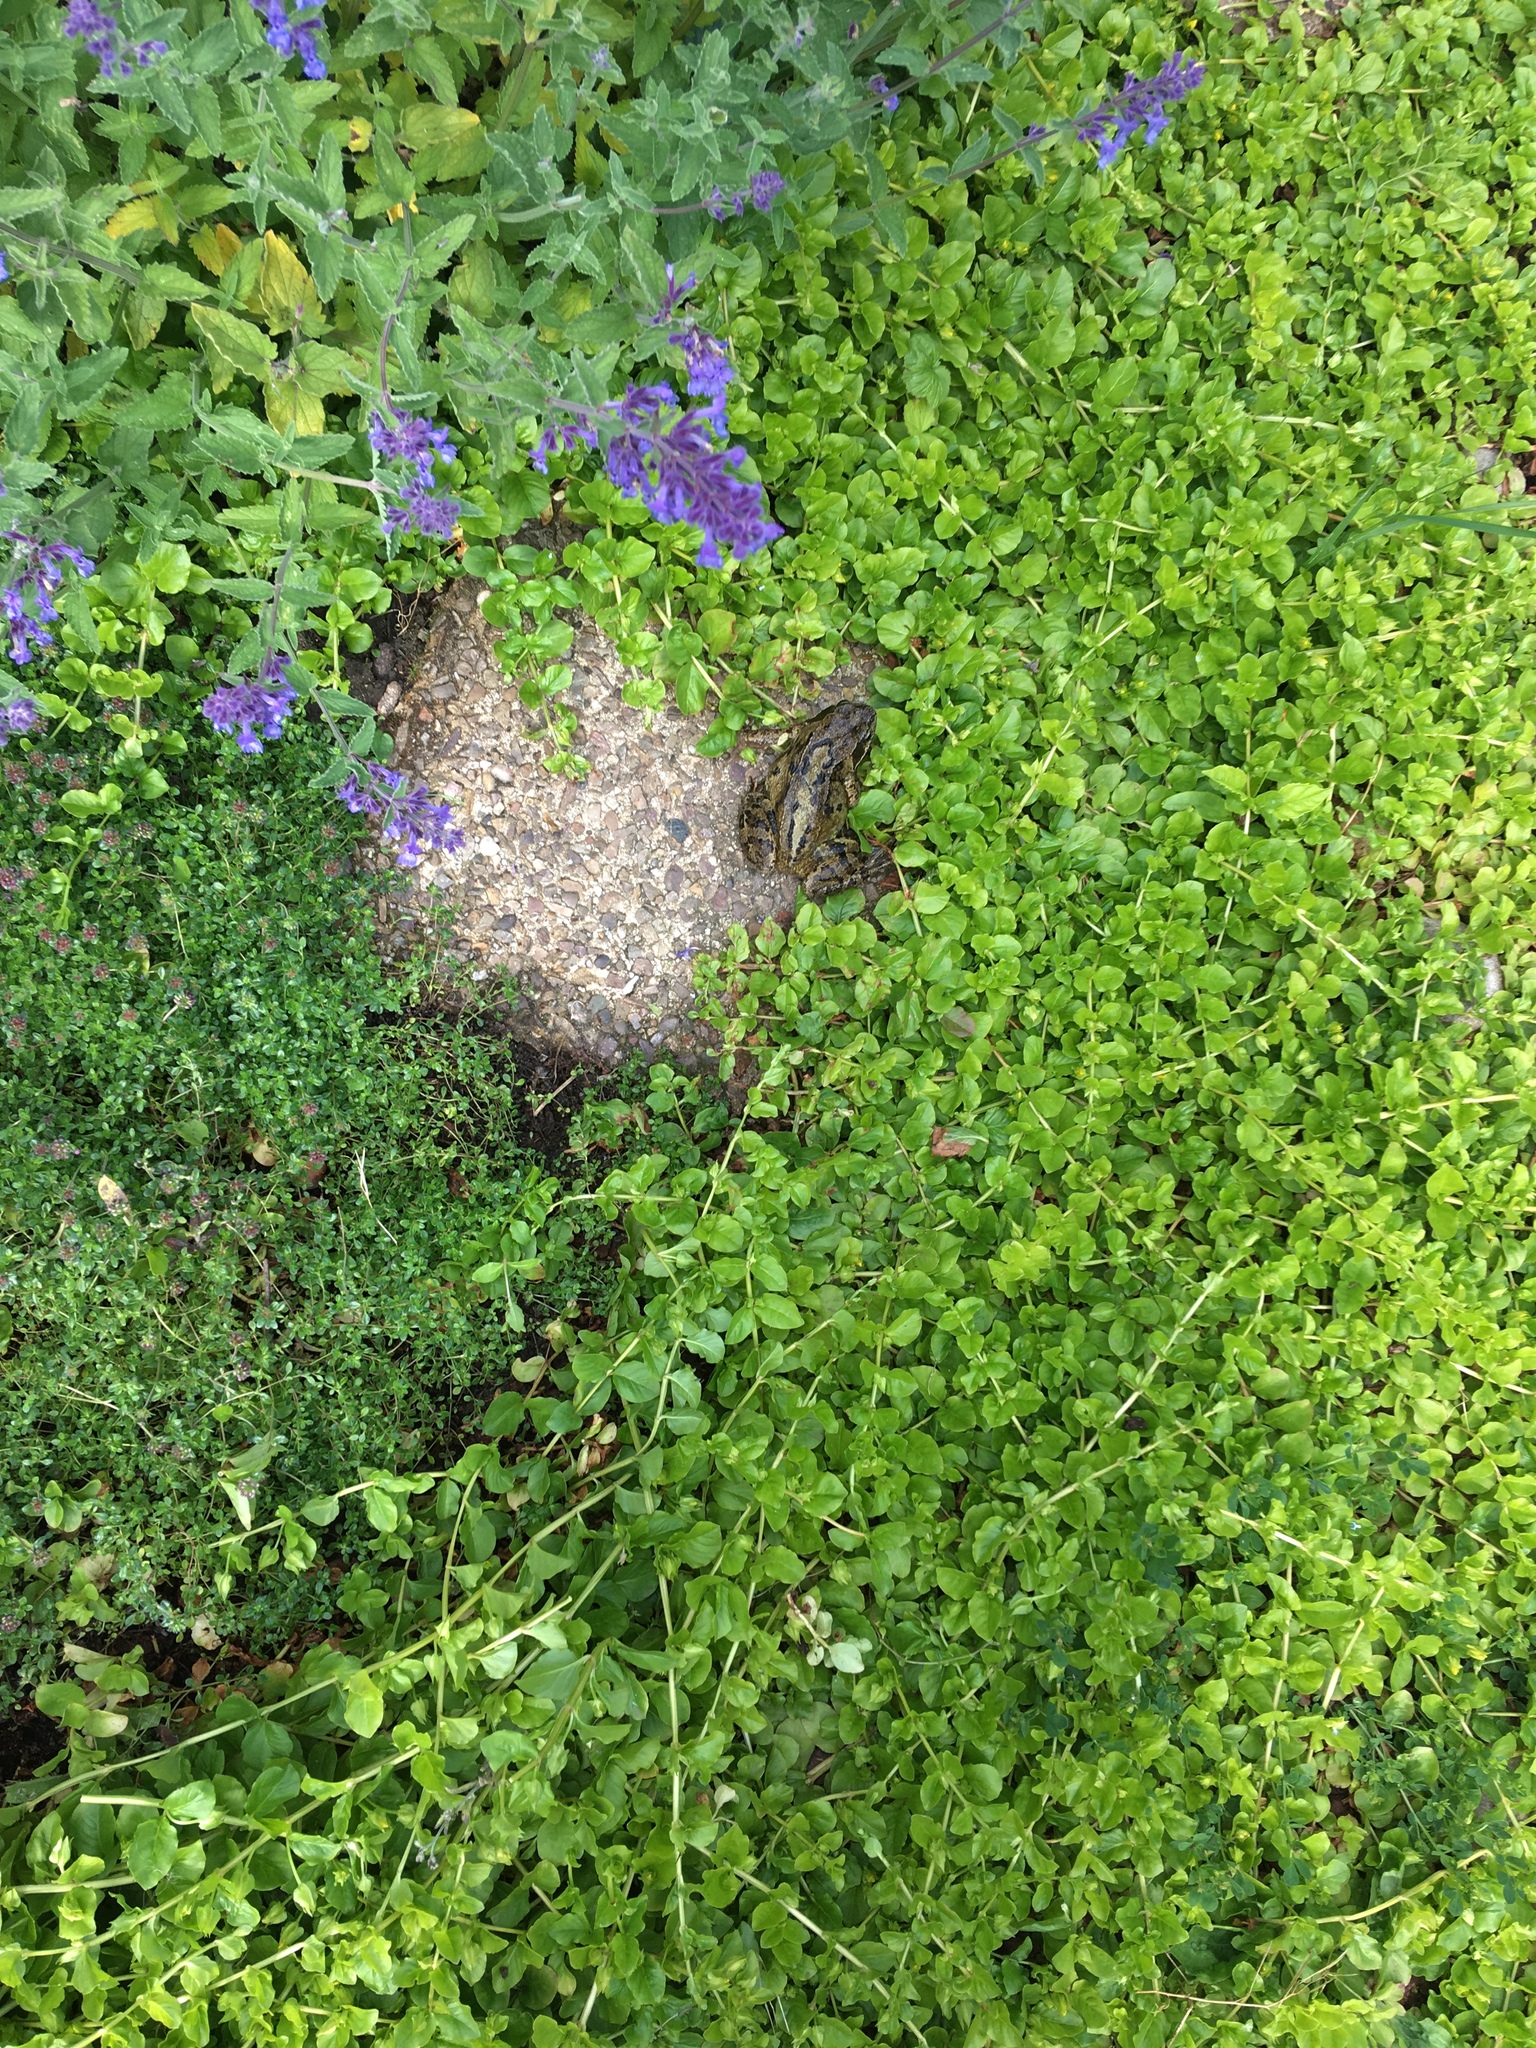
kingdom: Animalia
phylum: Chordata
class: Amphibia
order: Anura
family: Ranidae
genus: Rana
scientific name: Rana temporaria
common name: Common frog
